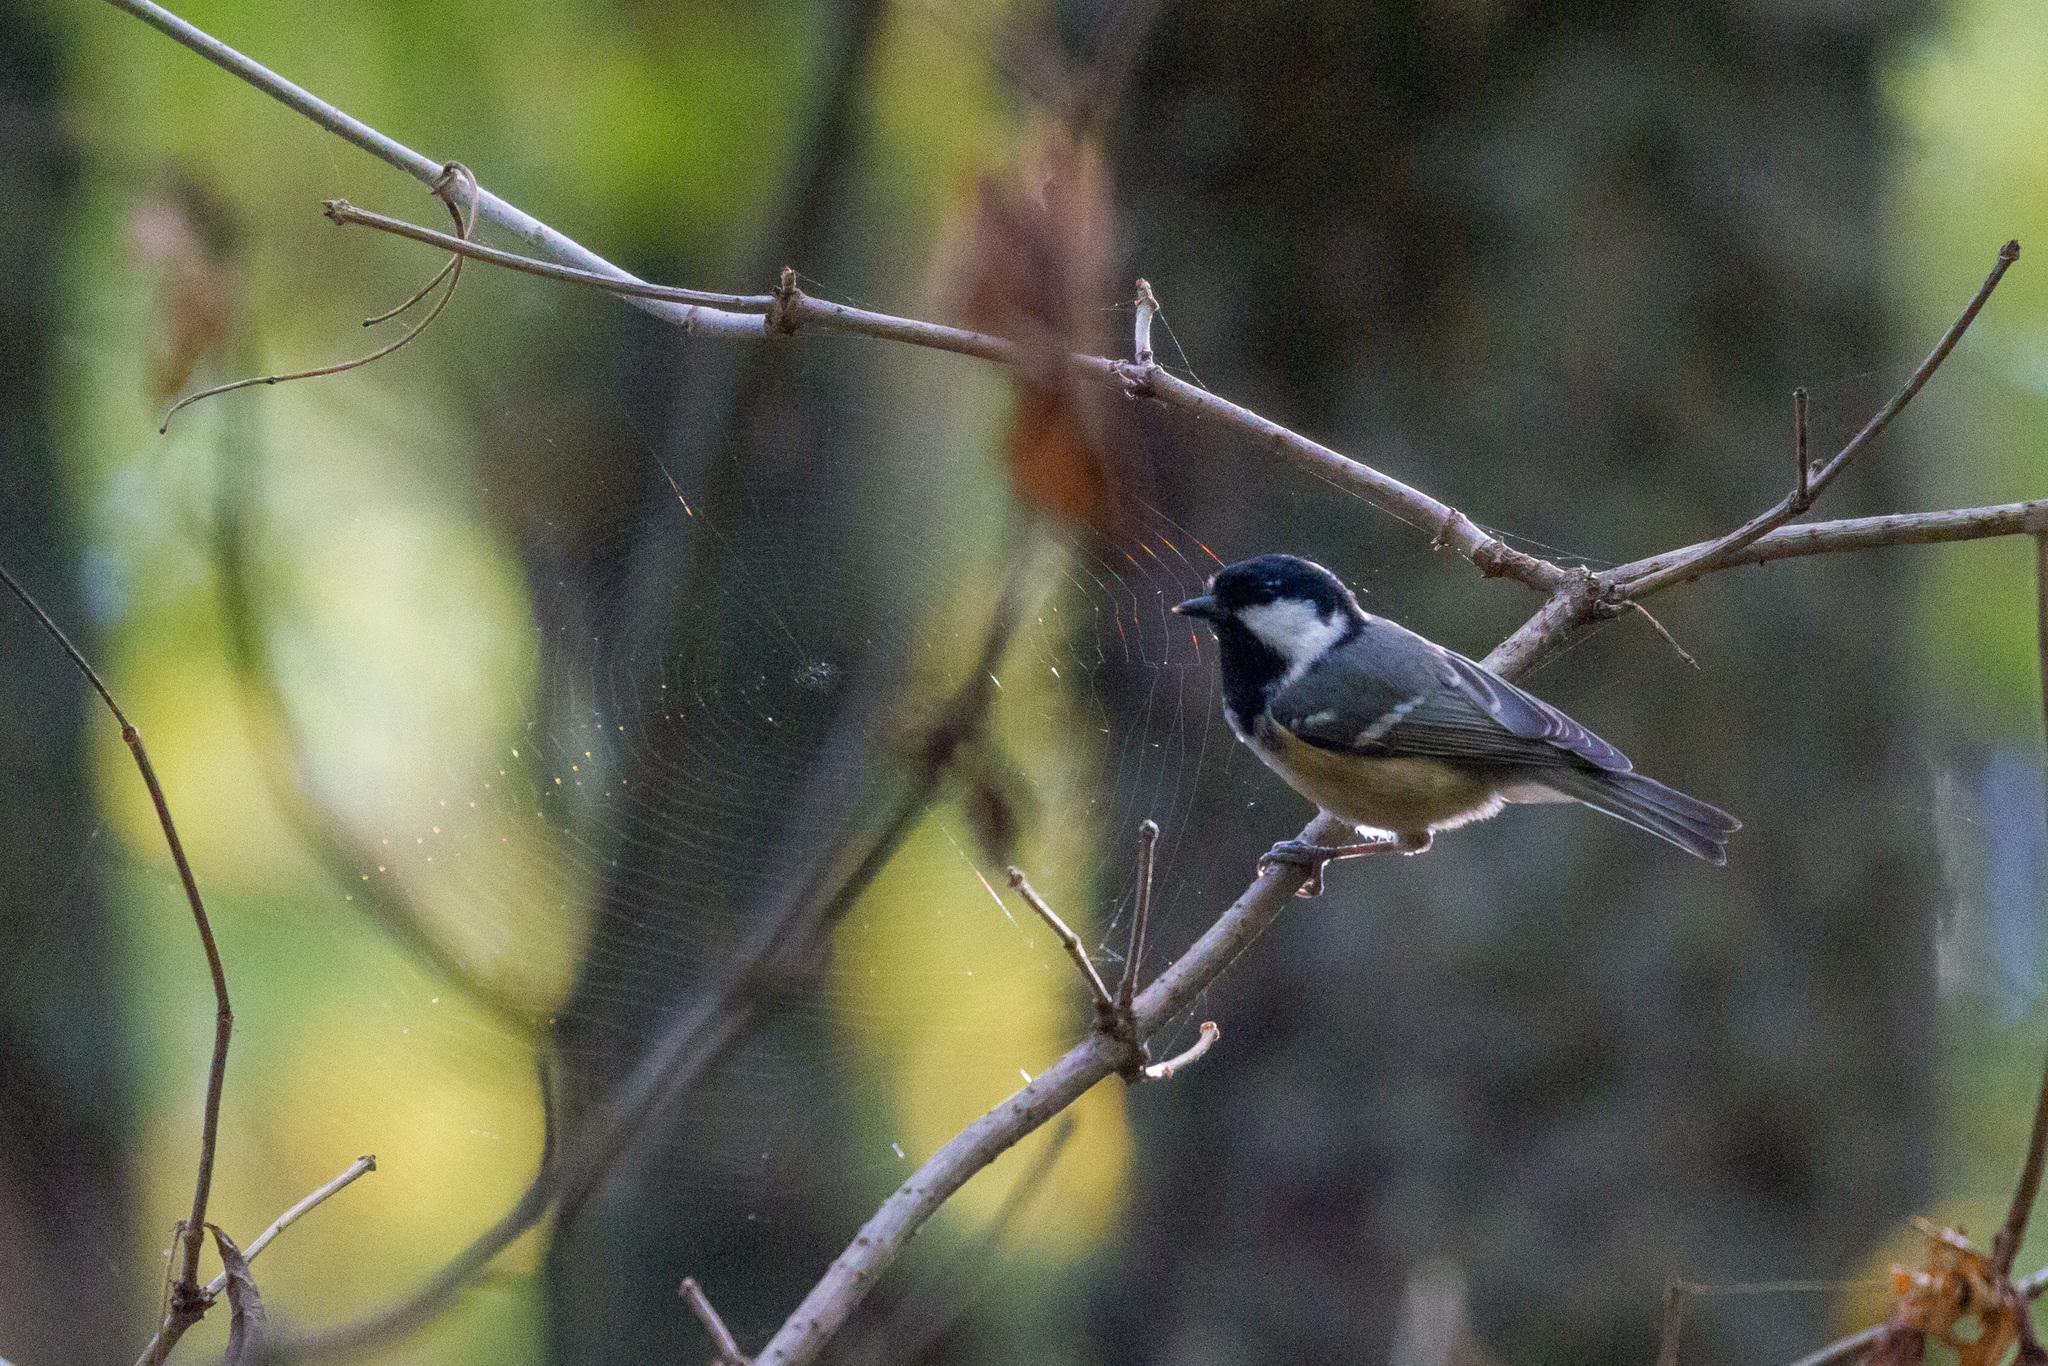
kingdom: Animalia
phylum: Chordata
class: Aves
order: Passeriformes
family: Paridae
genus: Periparus
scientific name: Periparus ater
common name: Coal tit
